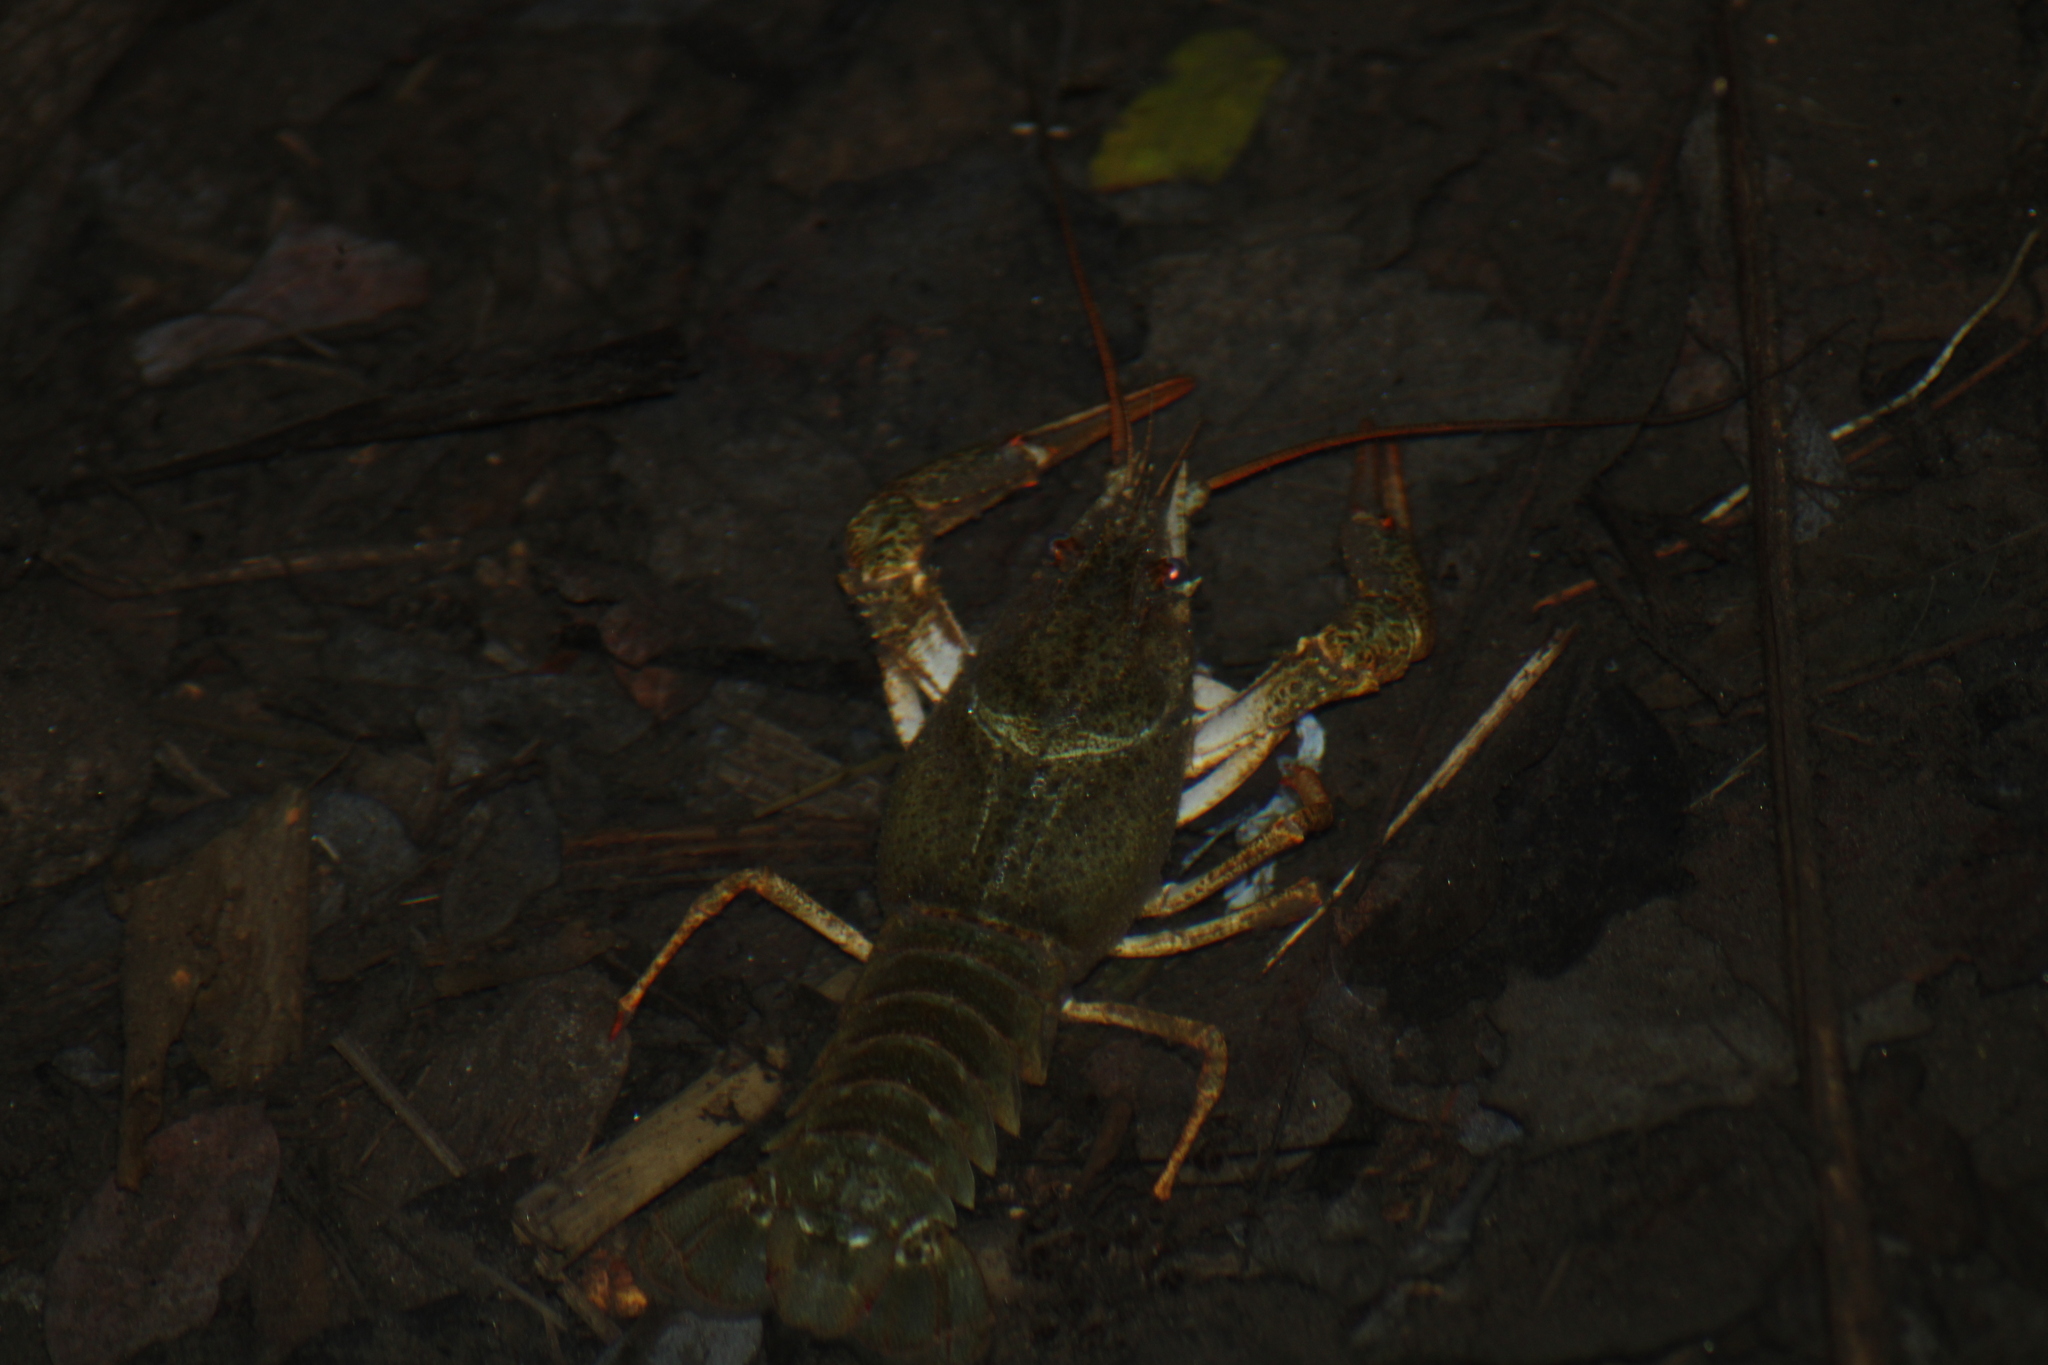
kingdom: Animalia
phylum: Arthropoda
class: Malacostraca
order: Decapoda
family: Astacidae
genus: Pontastacus
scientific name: Pontastacus leptodactylus
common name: Danube crayfish
